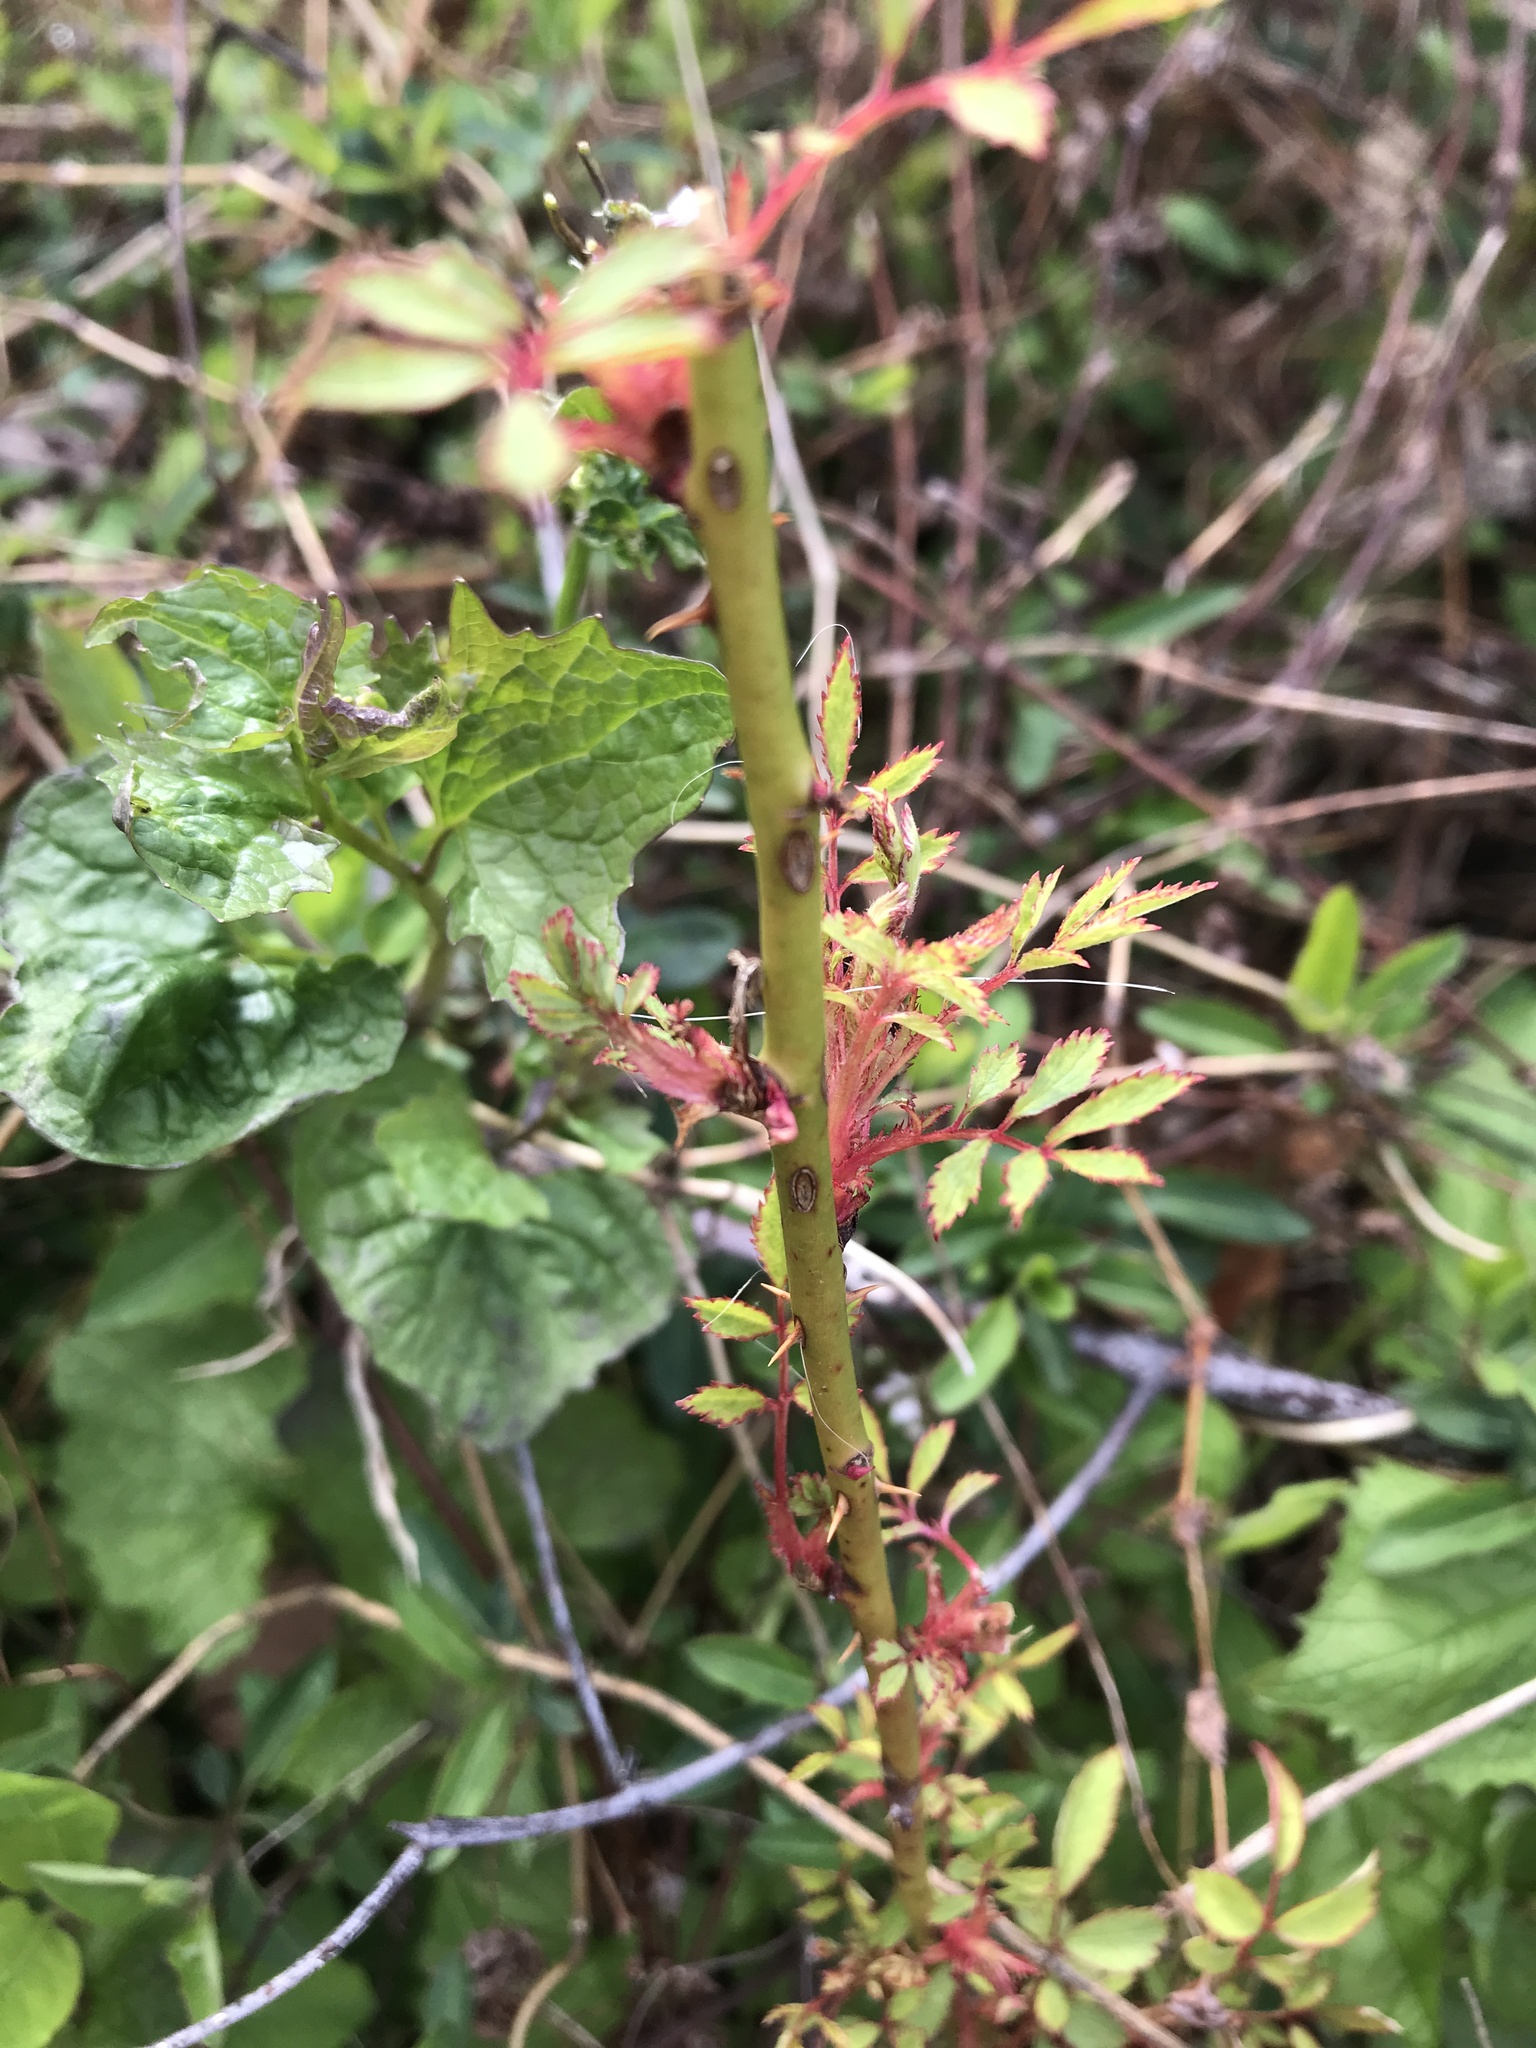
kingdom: Plantae
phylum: Tracheophyta
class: Magnoliopsida
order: Rosales
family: Rosaceae
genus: Rosa
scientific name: Rosa multiflora
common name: Multiflora rose
